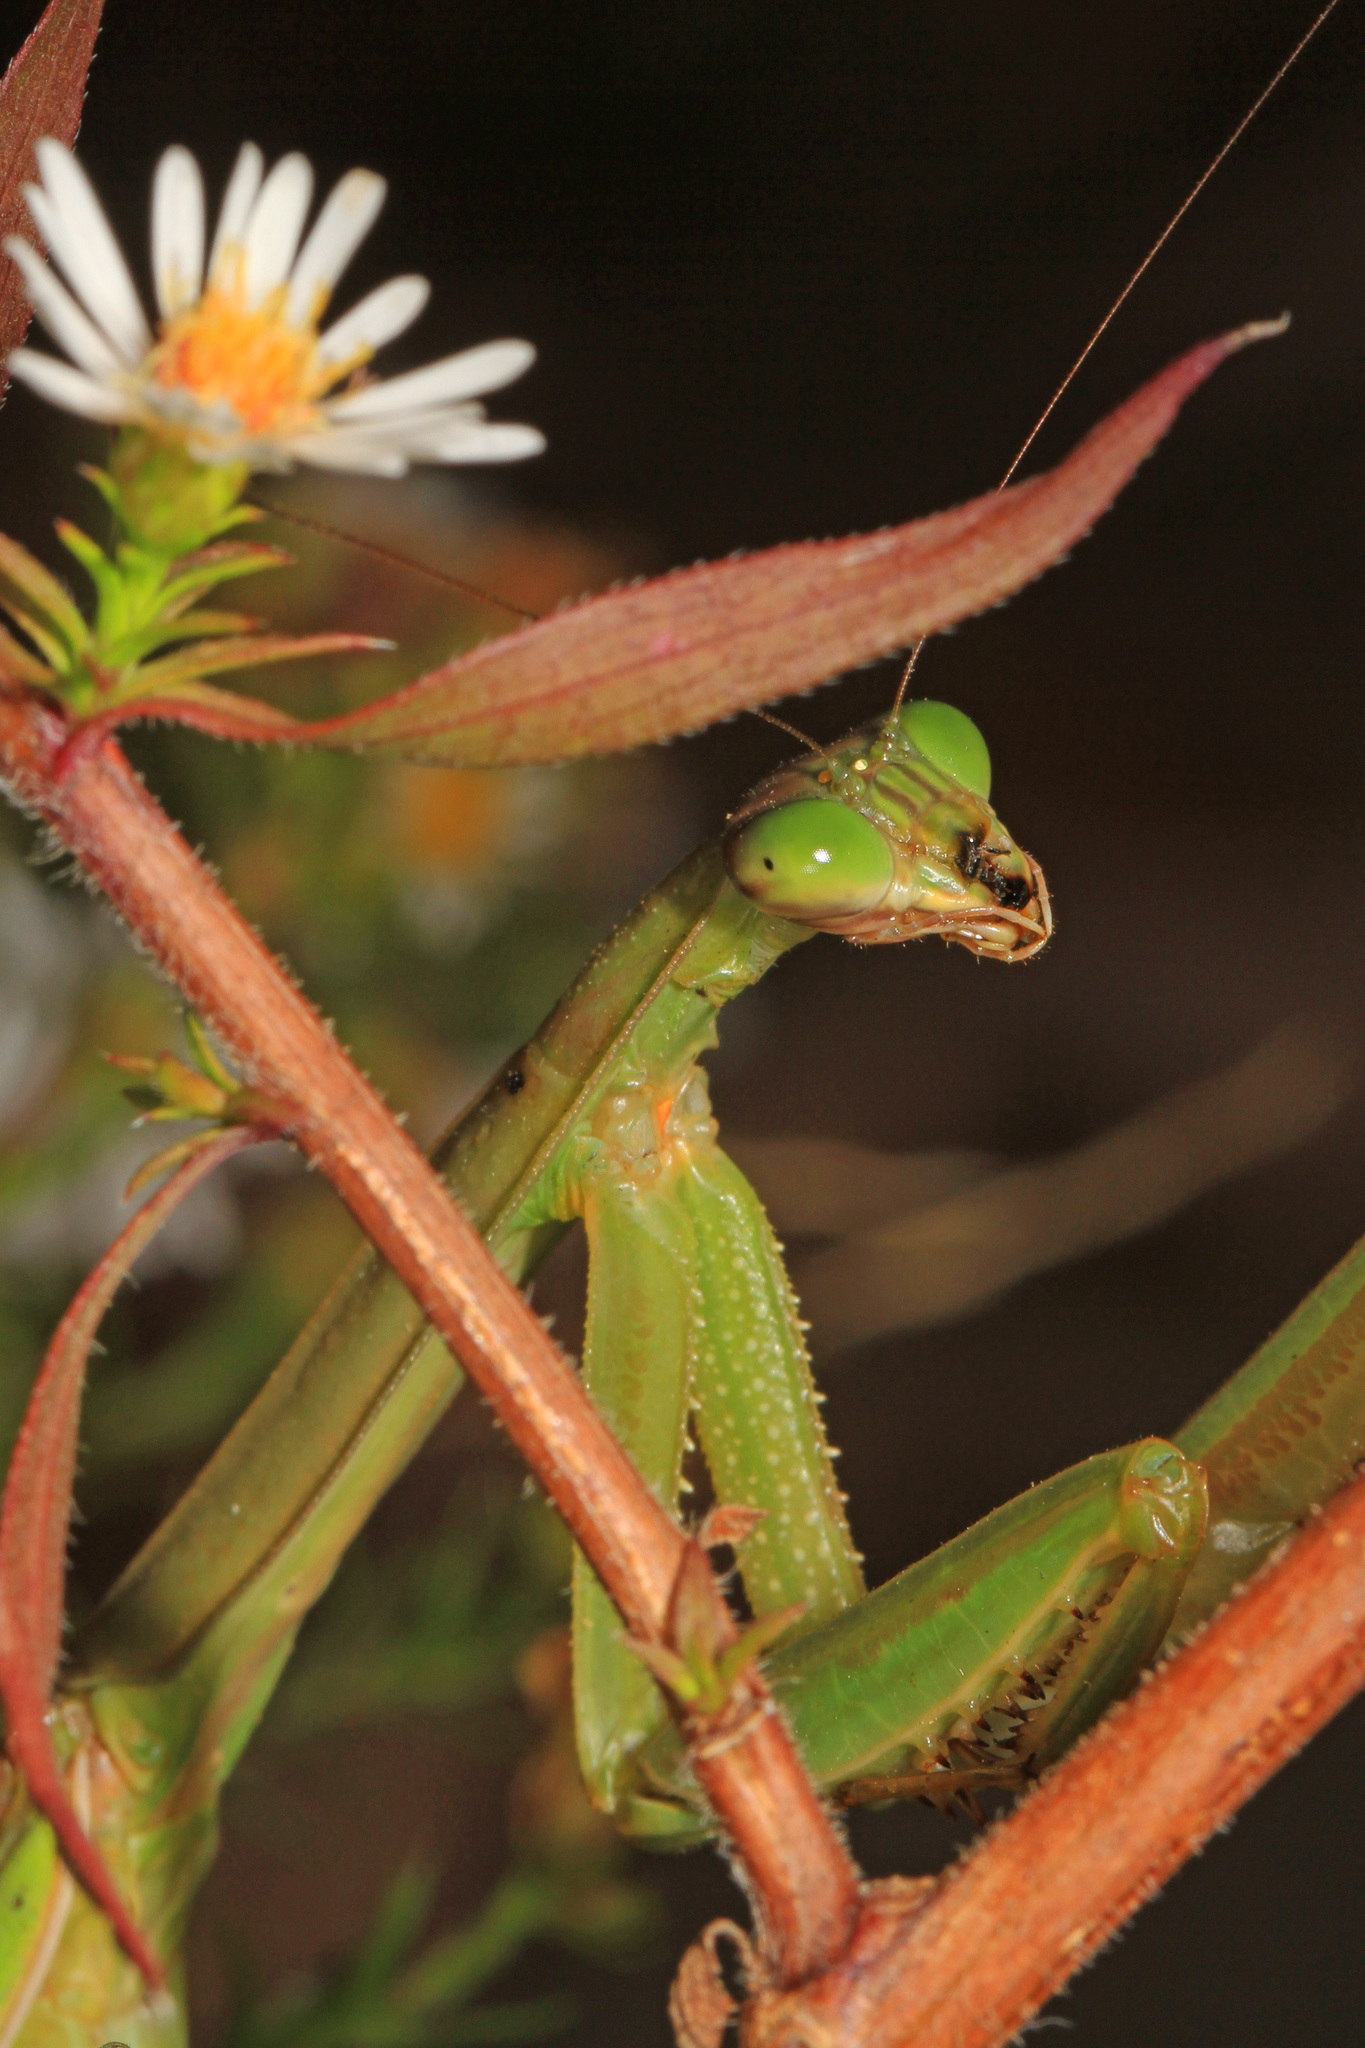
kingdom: Animalia
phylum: Arthropoda
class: Insecta
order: Mantodea
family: Mantidae
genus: Tenodera
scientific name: Tenodera angustipennis
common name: Asian mantis
